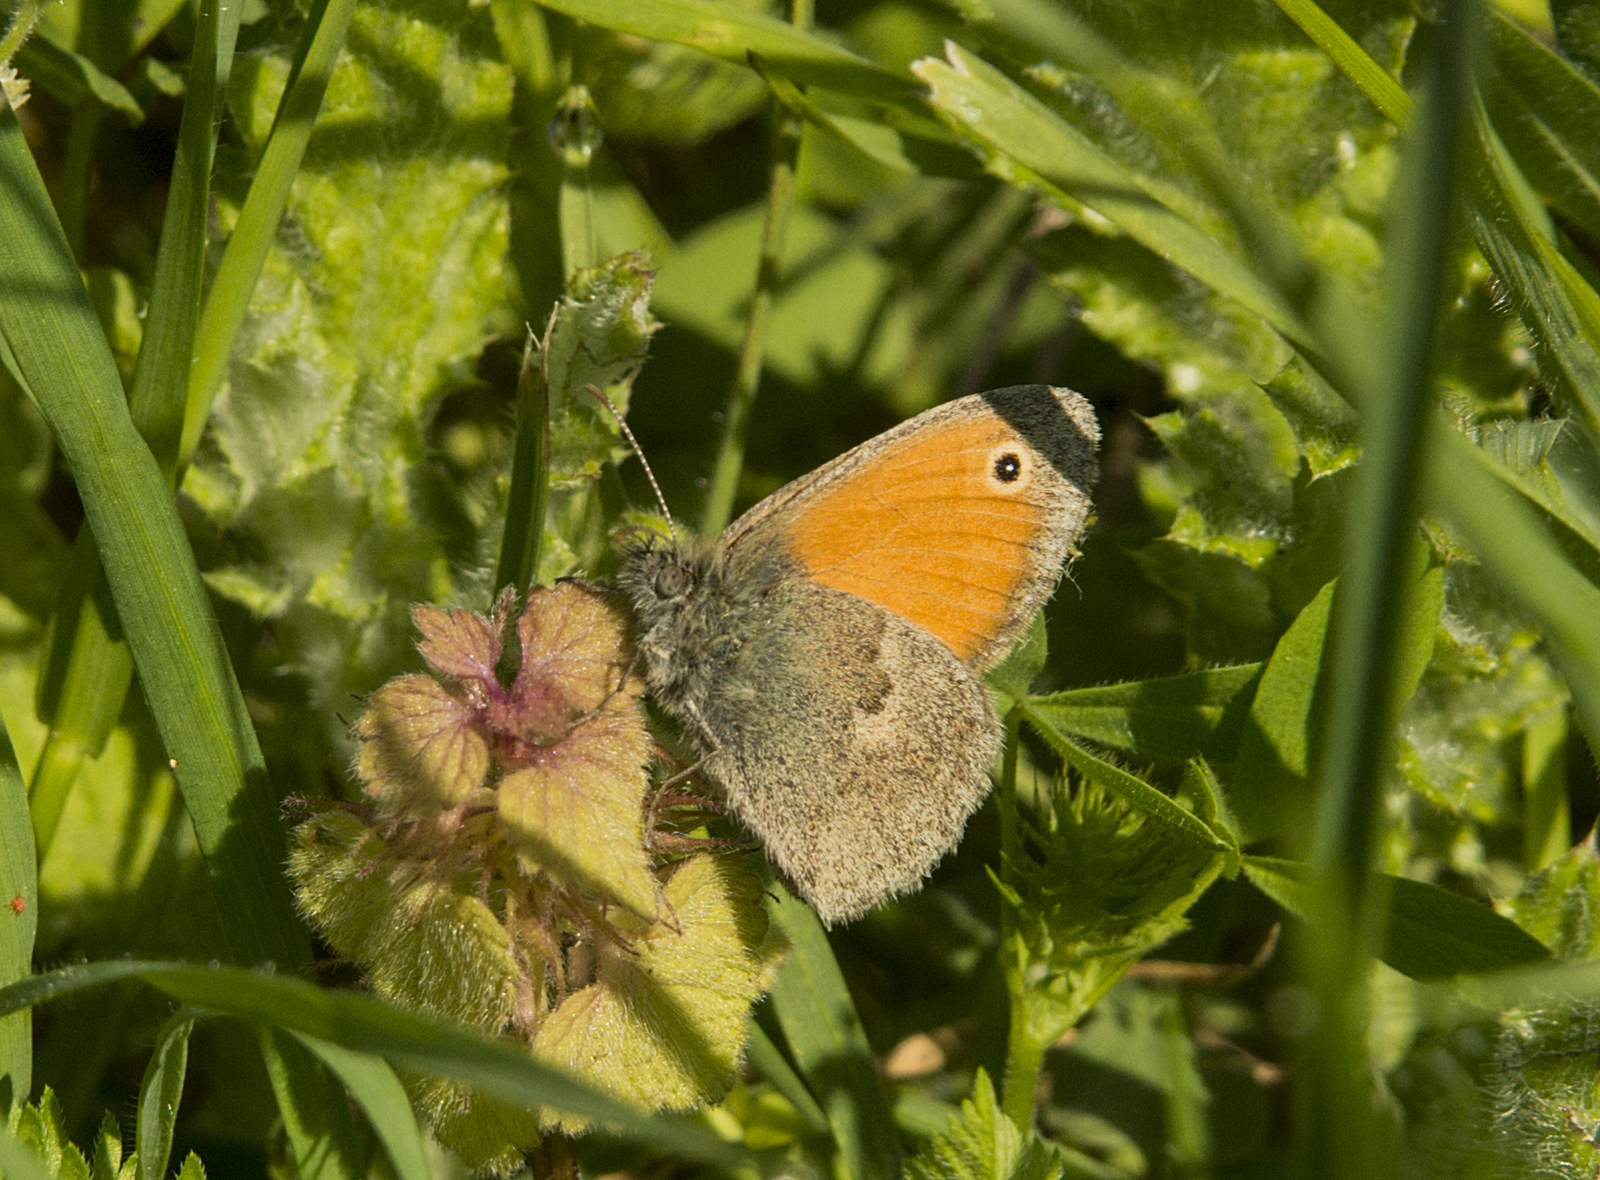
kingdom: Animalia
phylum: Arthropoda
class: Insecta
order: Lepidoptera
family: Nymphalidae
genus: Coenonympha
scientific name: Coenonympha pamphilus
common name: Small heath
